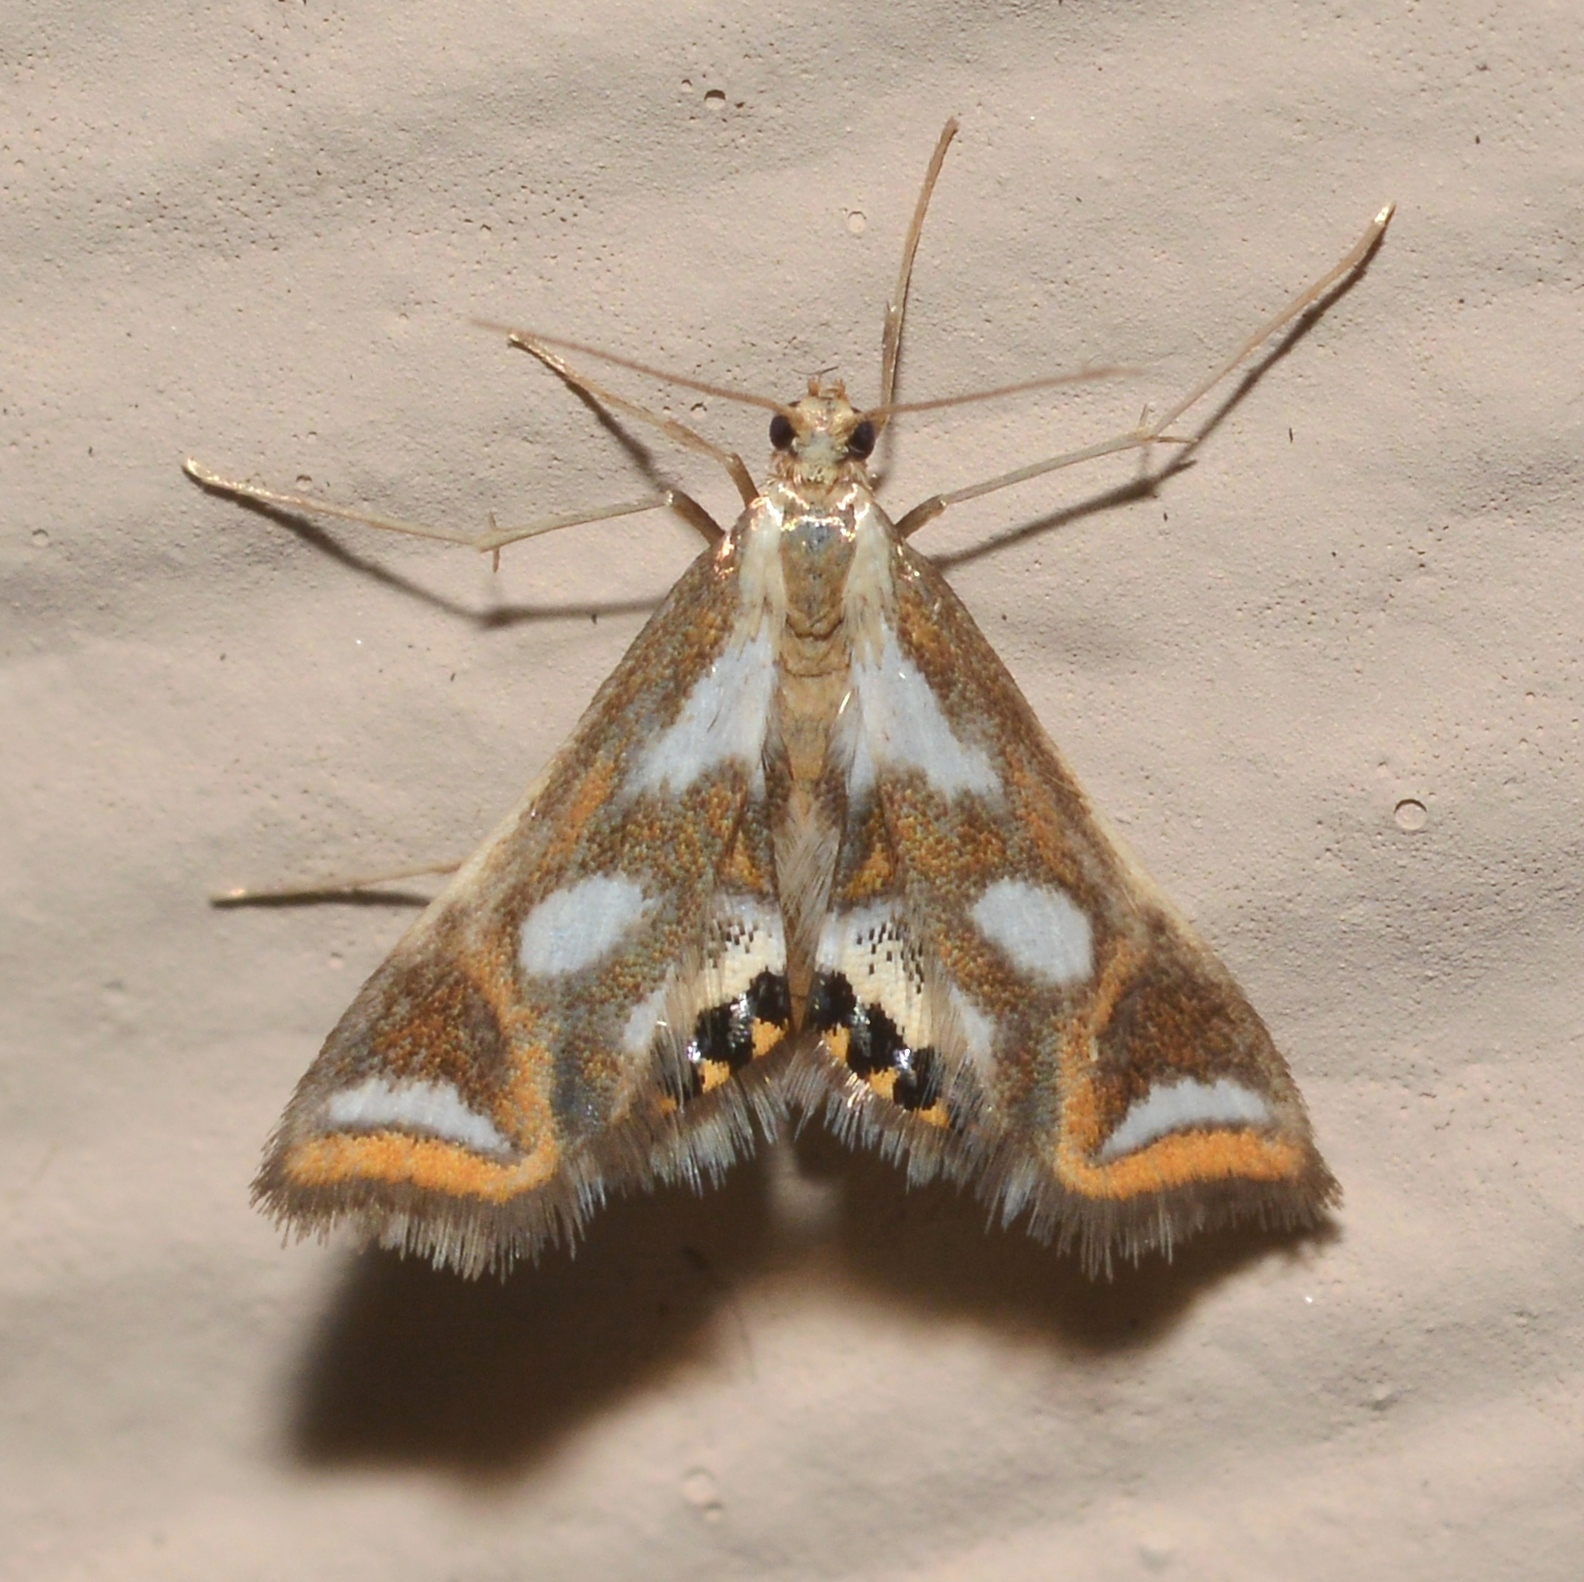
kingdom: Animalia
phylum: Arthropoda
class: Insecta
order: Lepidoptera
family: Crambidae
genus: Chrysendeton
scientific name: Chrysendeton imitabilis
